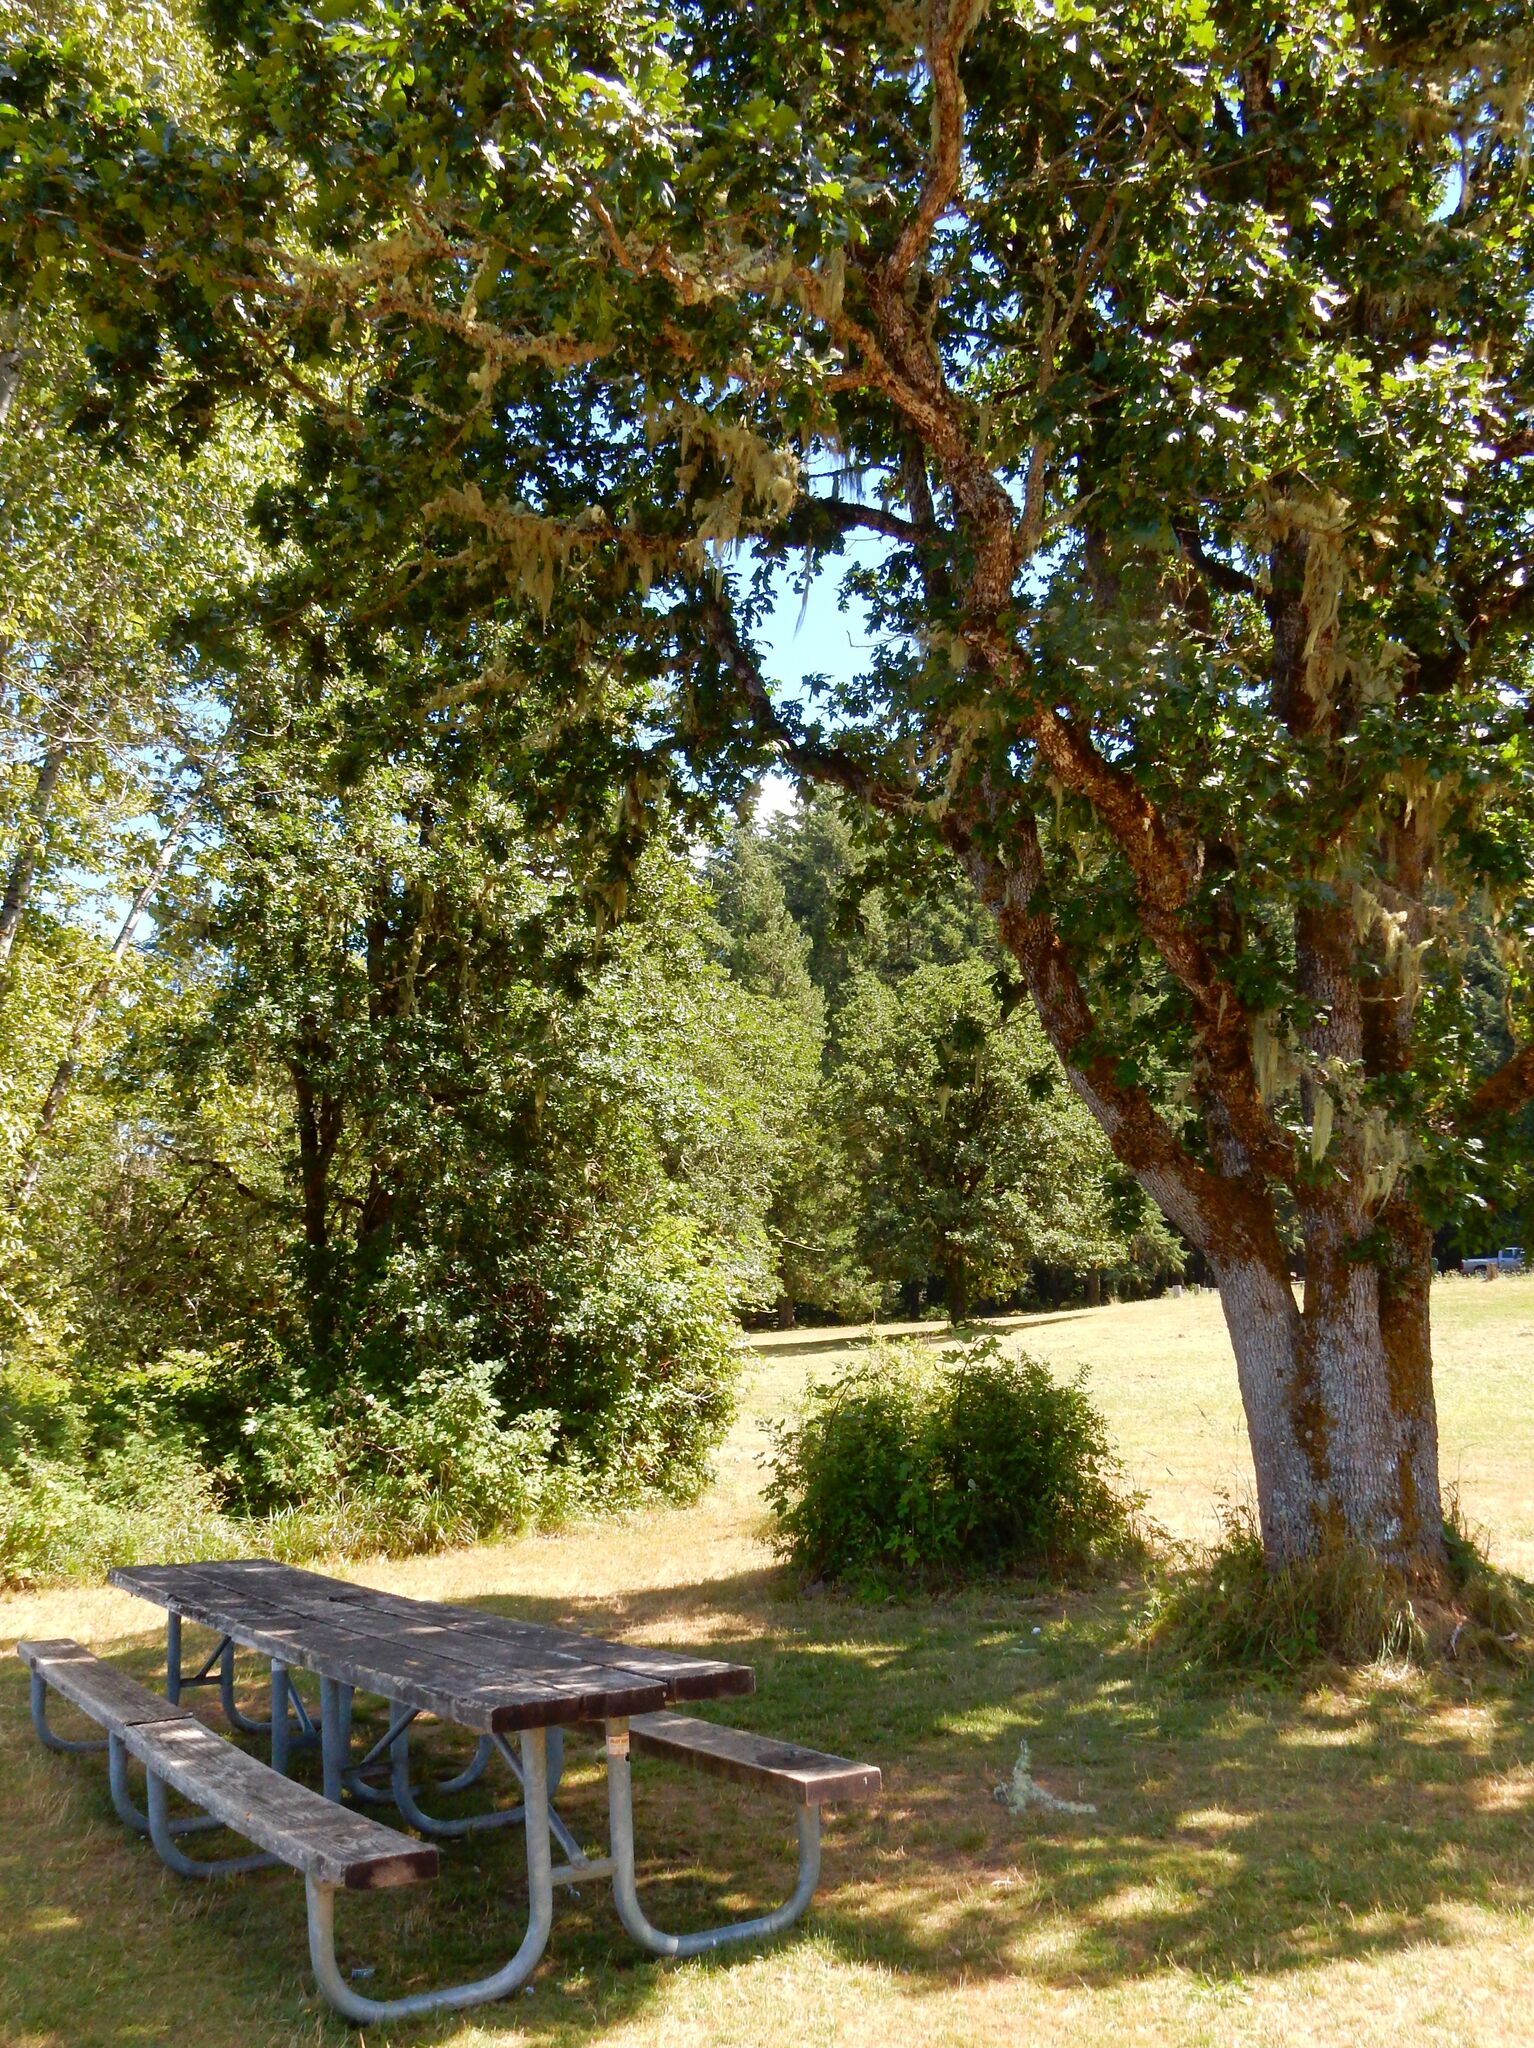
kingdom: Plantae
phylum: Tracheophyta
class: Magnoliopsida
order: Fagales
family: Fagaceae
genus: Quercus
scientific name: Quercus garryana
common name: Garry oak
